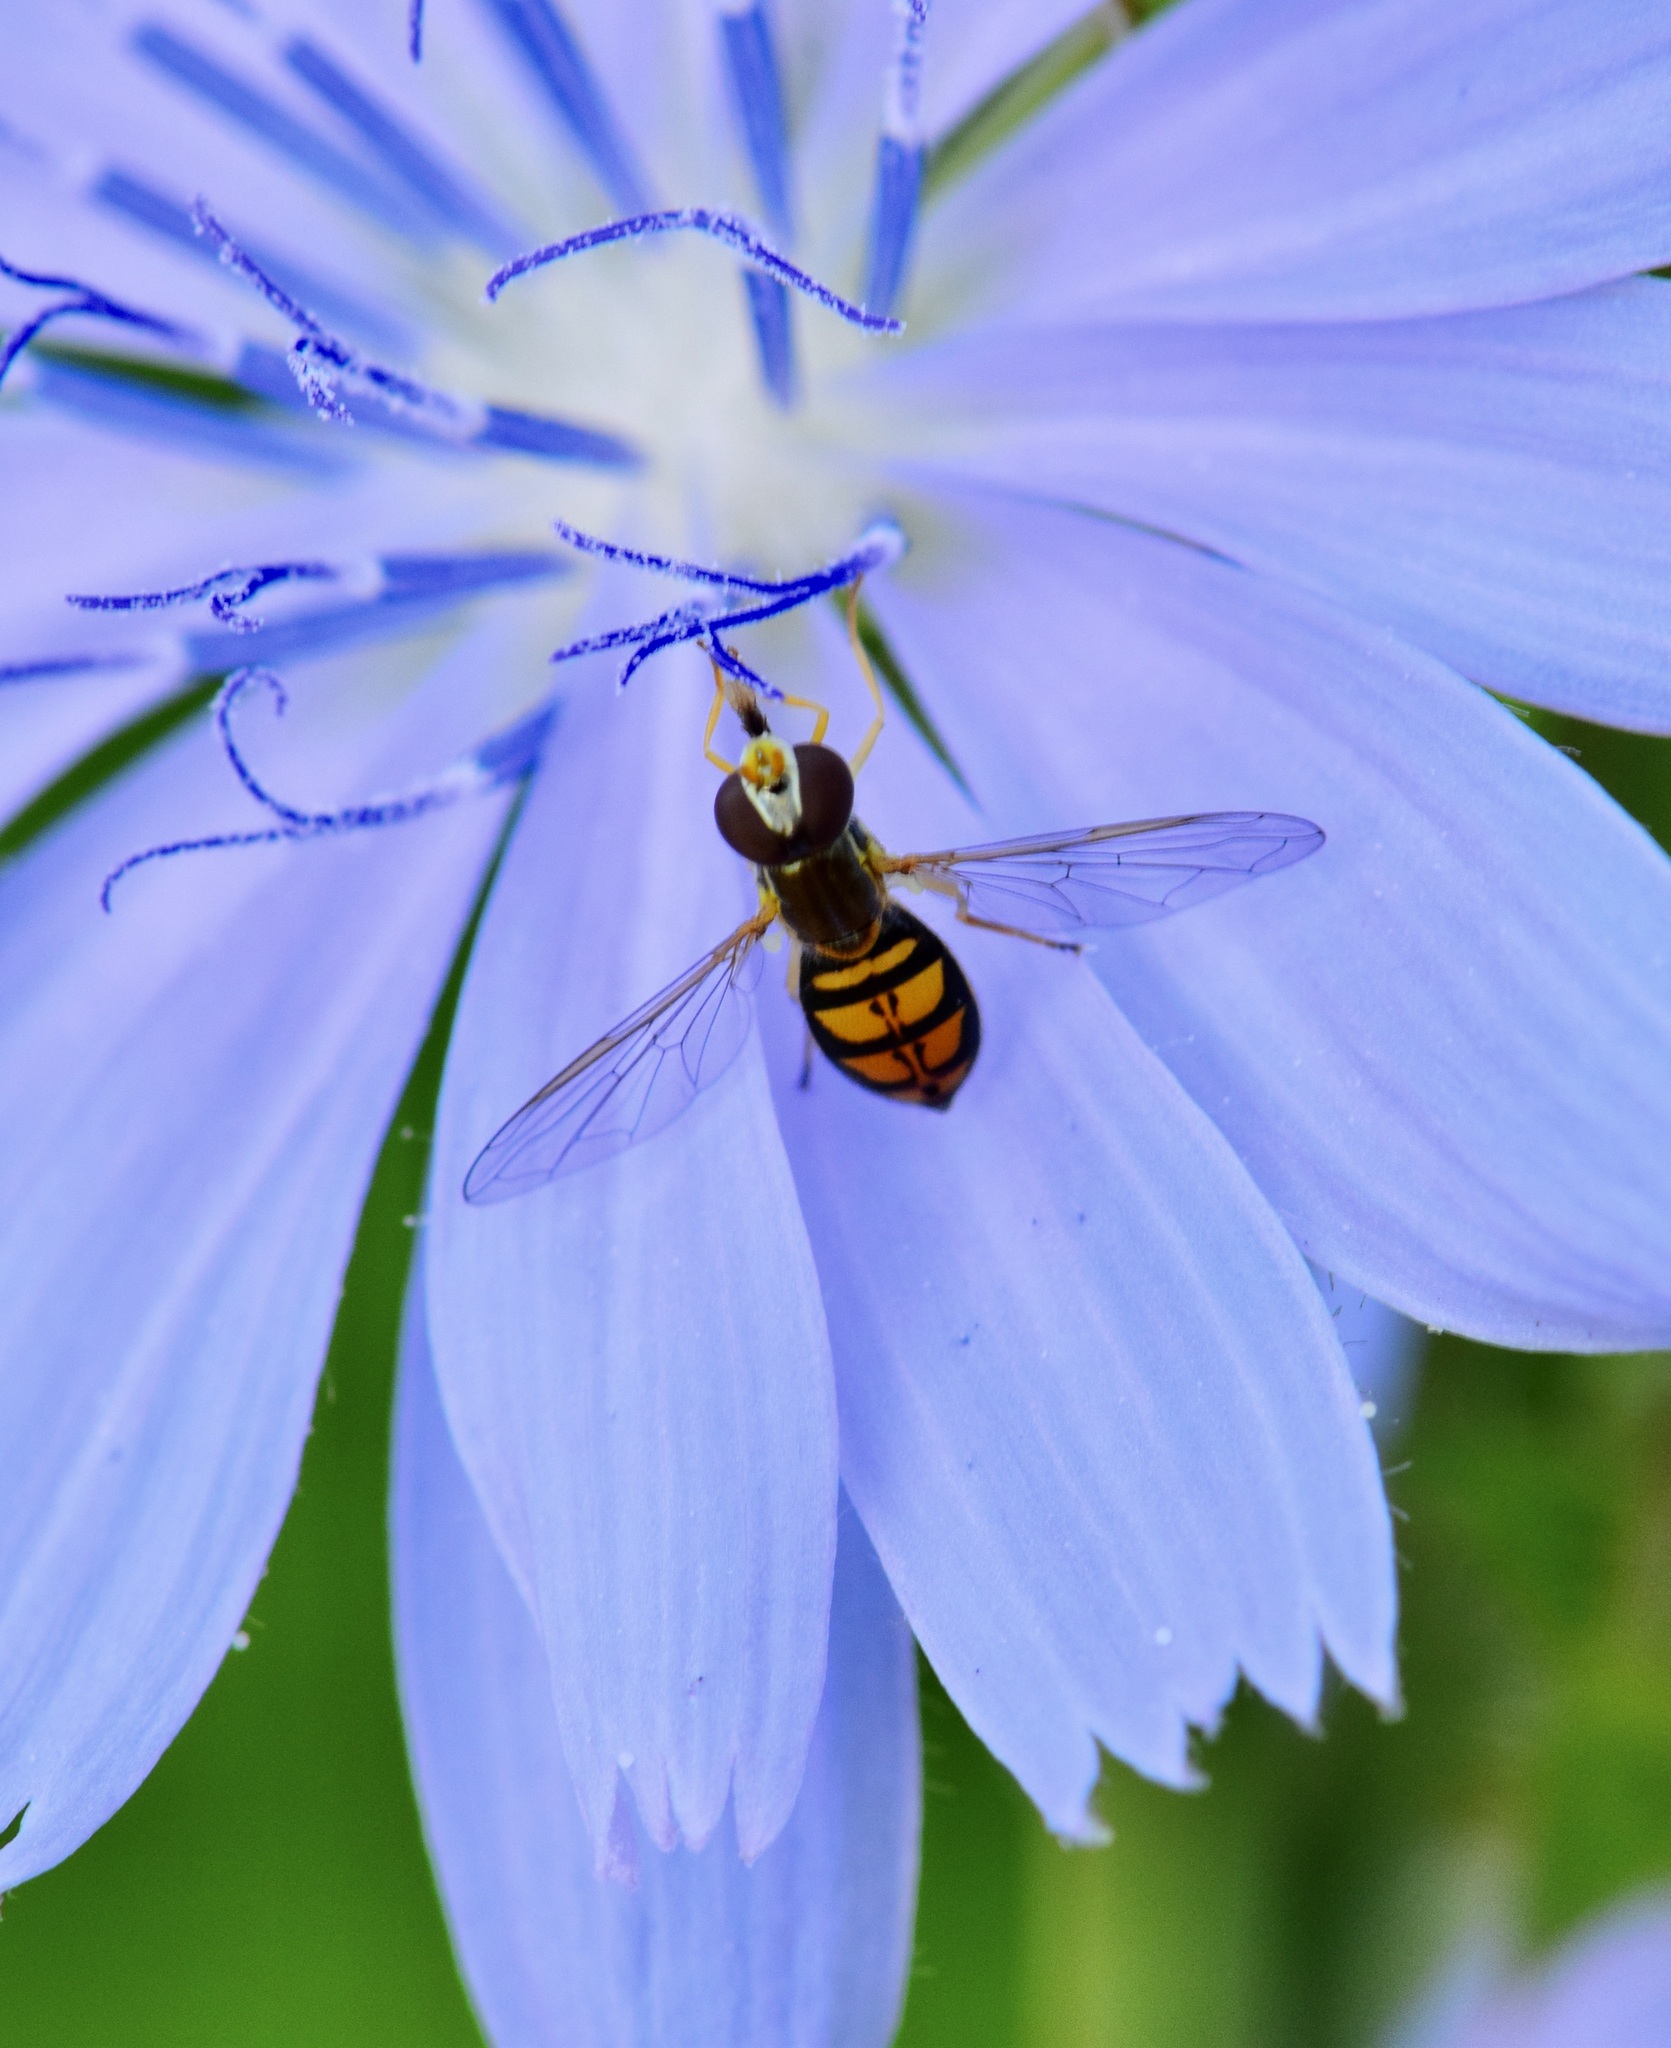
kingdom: Animalia
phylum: Arthropoda
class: Insecta
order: Diptera
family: Syrphidae
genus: Toxomerus
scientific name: Toxomerus marginatus
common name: Syrphid fly
